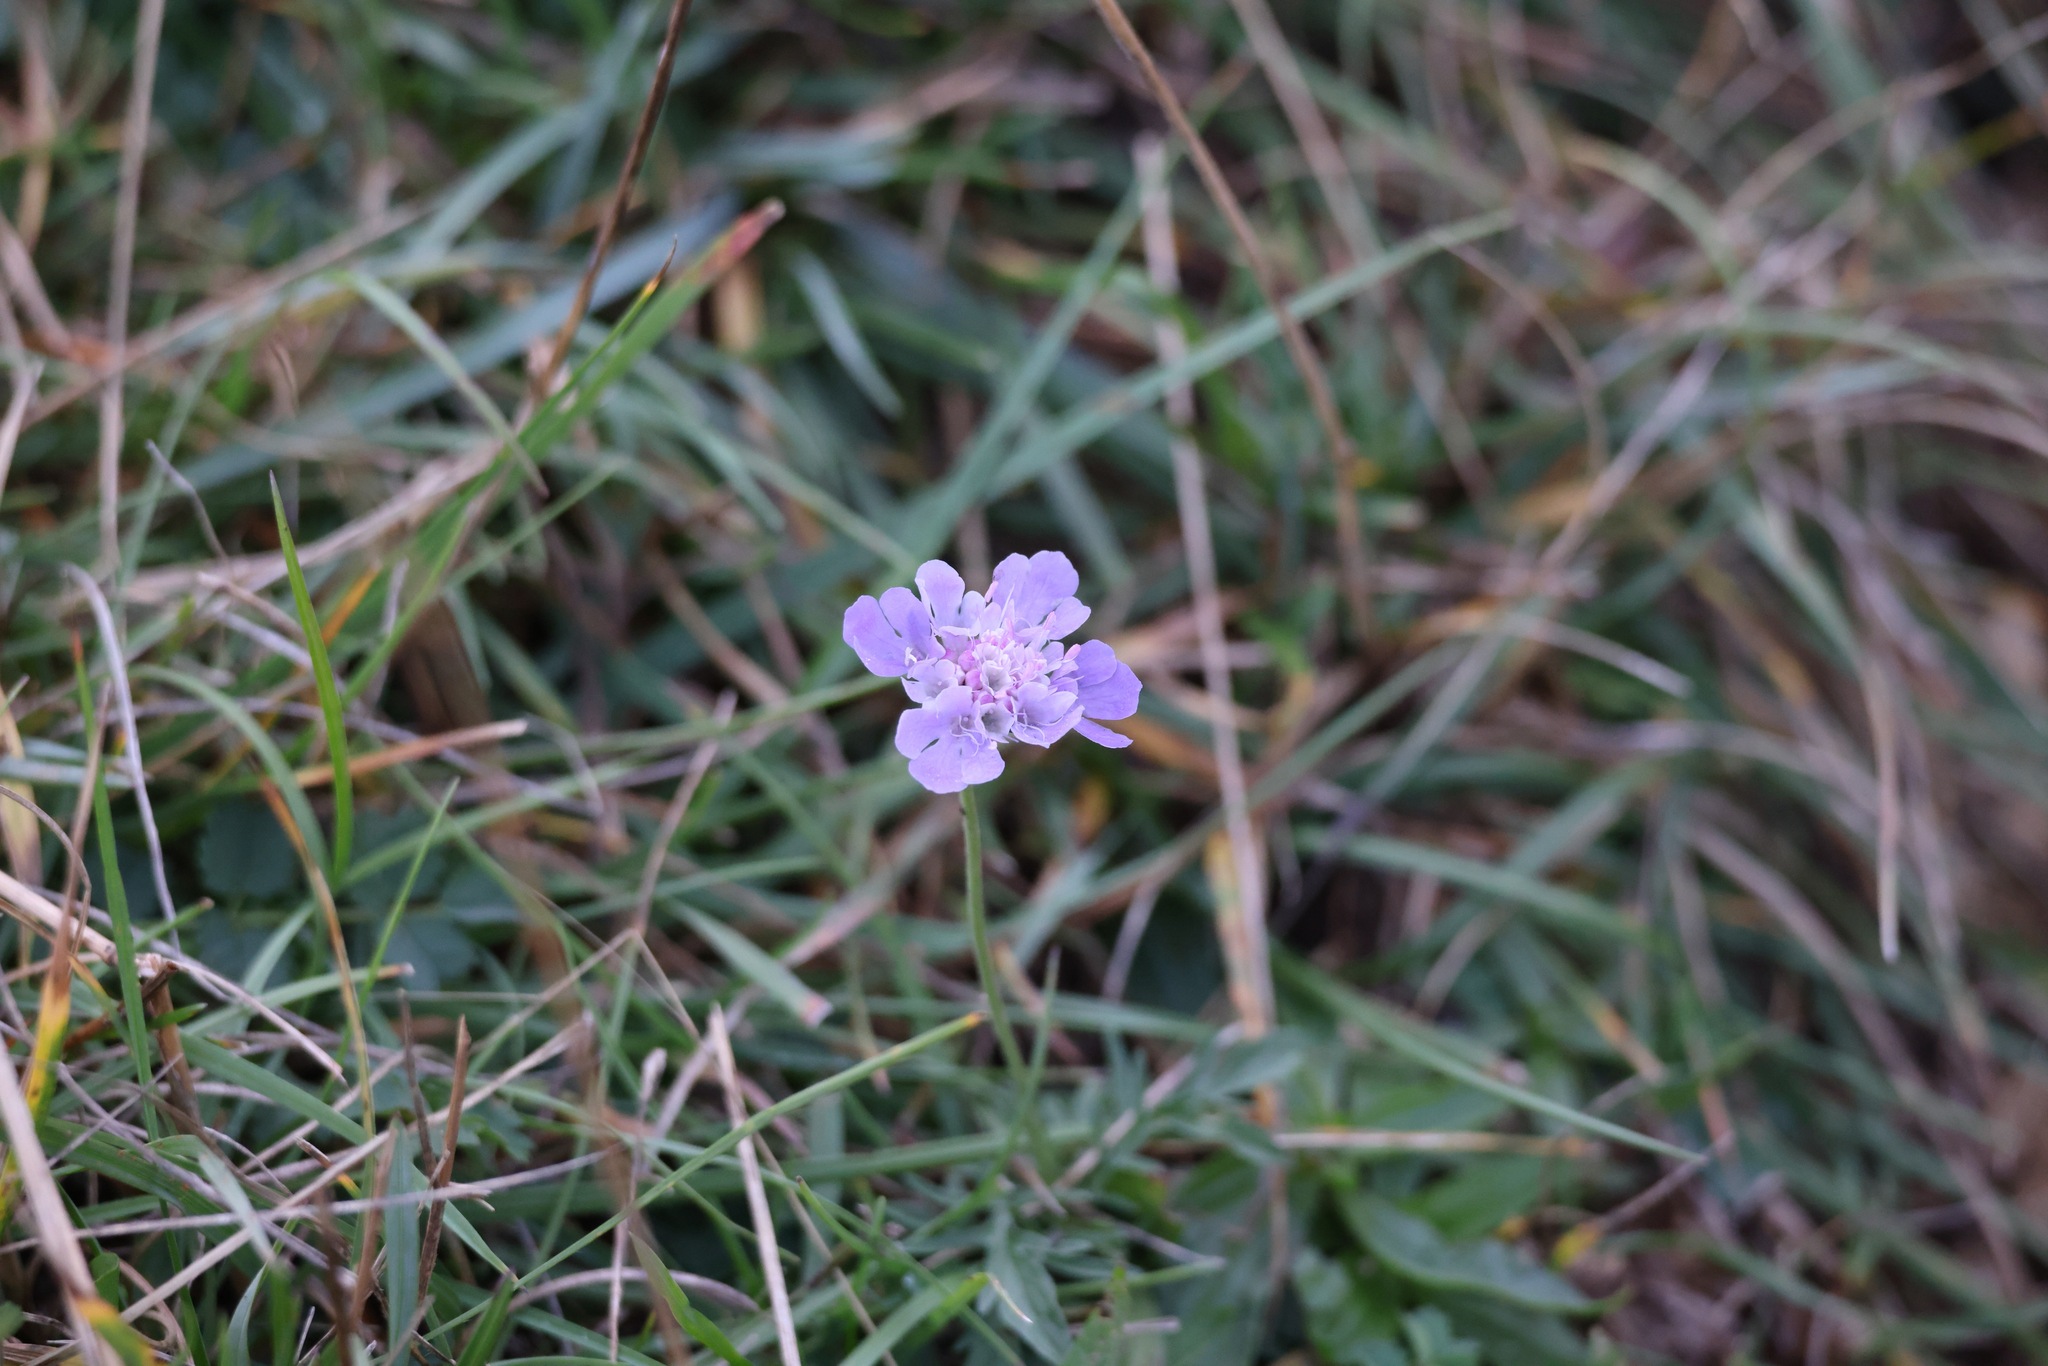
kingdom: Plantae
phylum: Tracheophyta
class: Magnoliopsida
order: Dipsacales
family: Caprifoliaceae
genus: Scabiosa
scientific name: Scabiosa columbaria
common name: Small scabious
